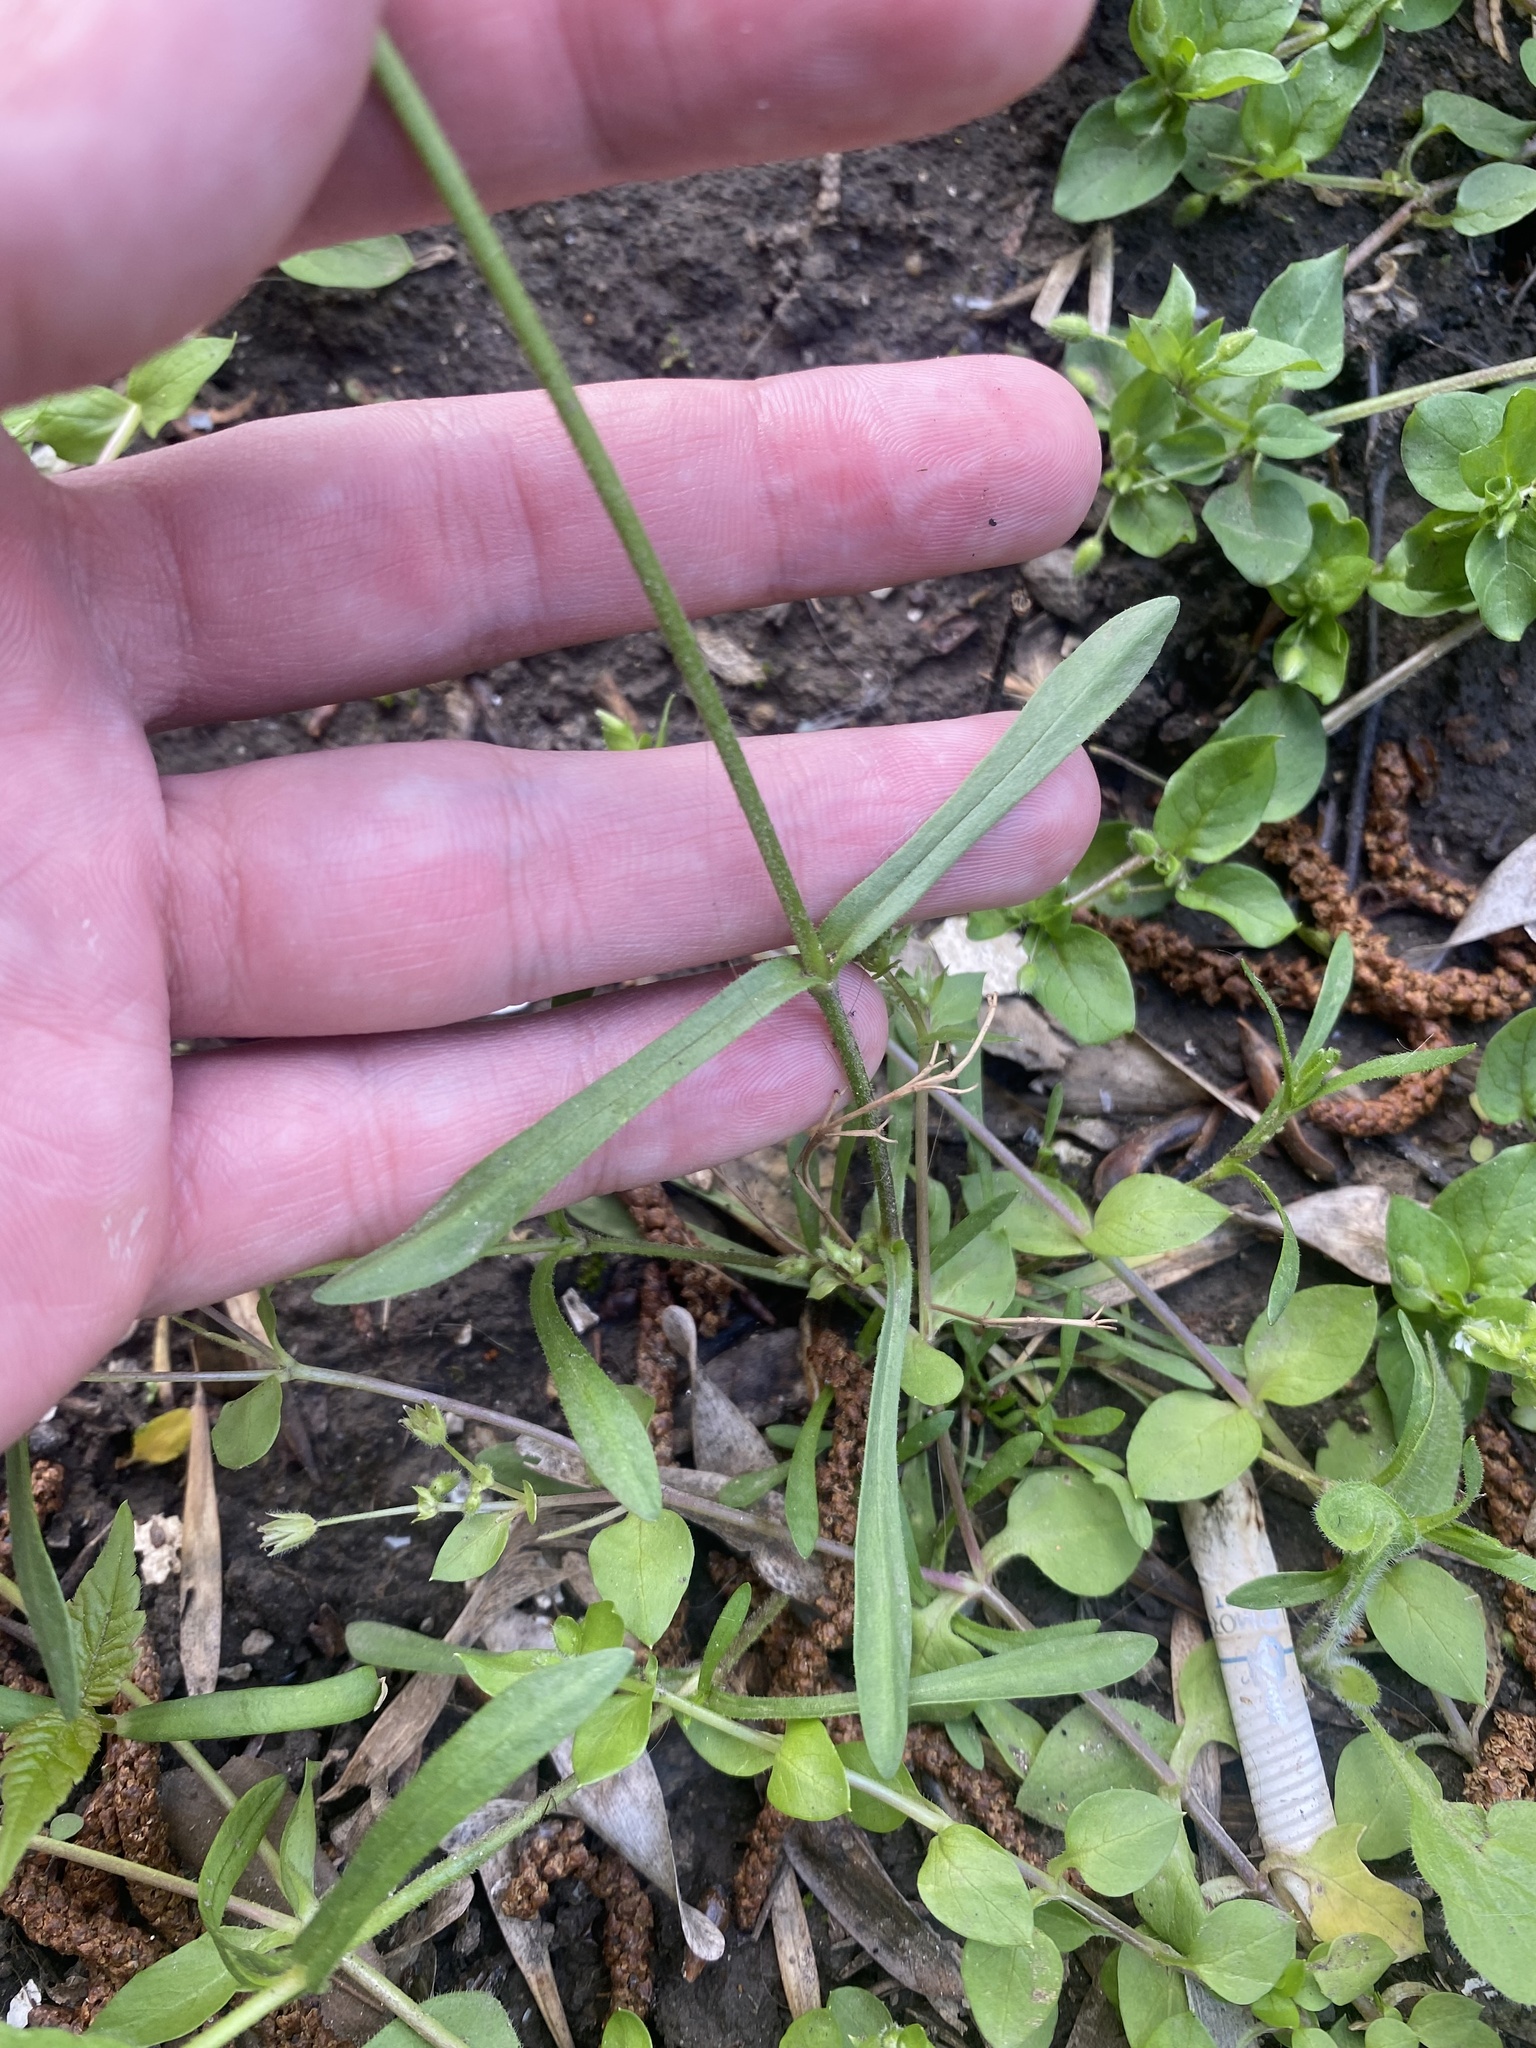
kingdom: Plantae
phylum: Tracheophyta
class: Magnoliopsida
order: Caryophyllales
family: Caryophyllaceae
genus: Dichodon
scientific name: Dichodon viscidum
